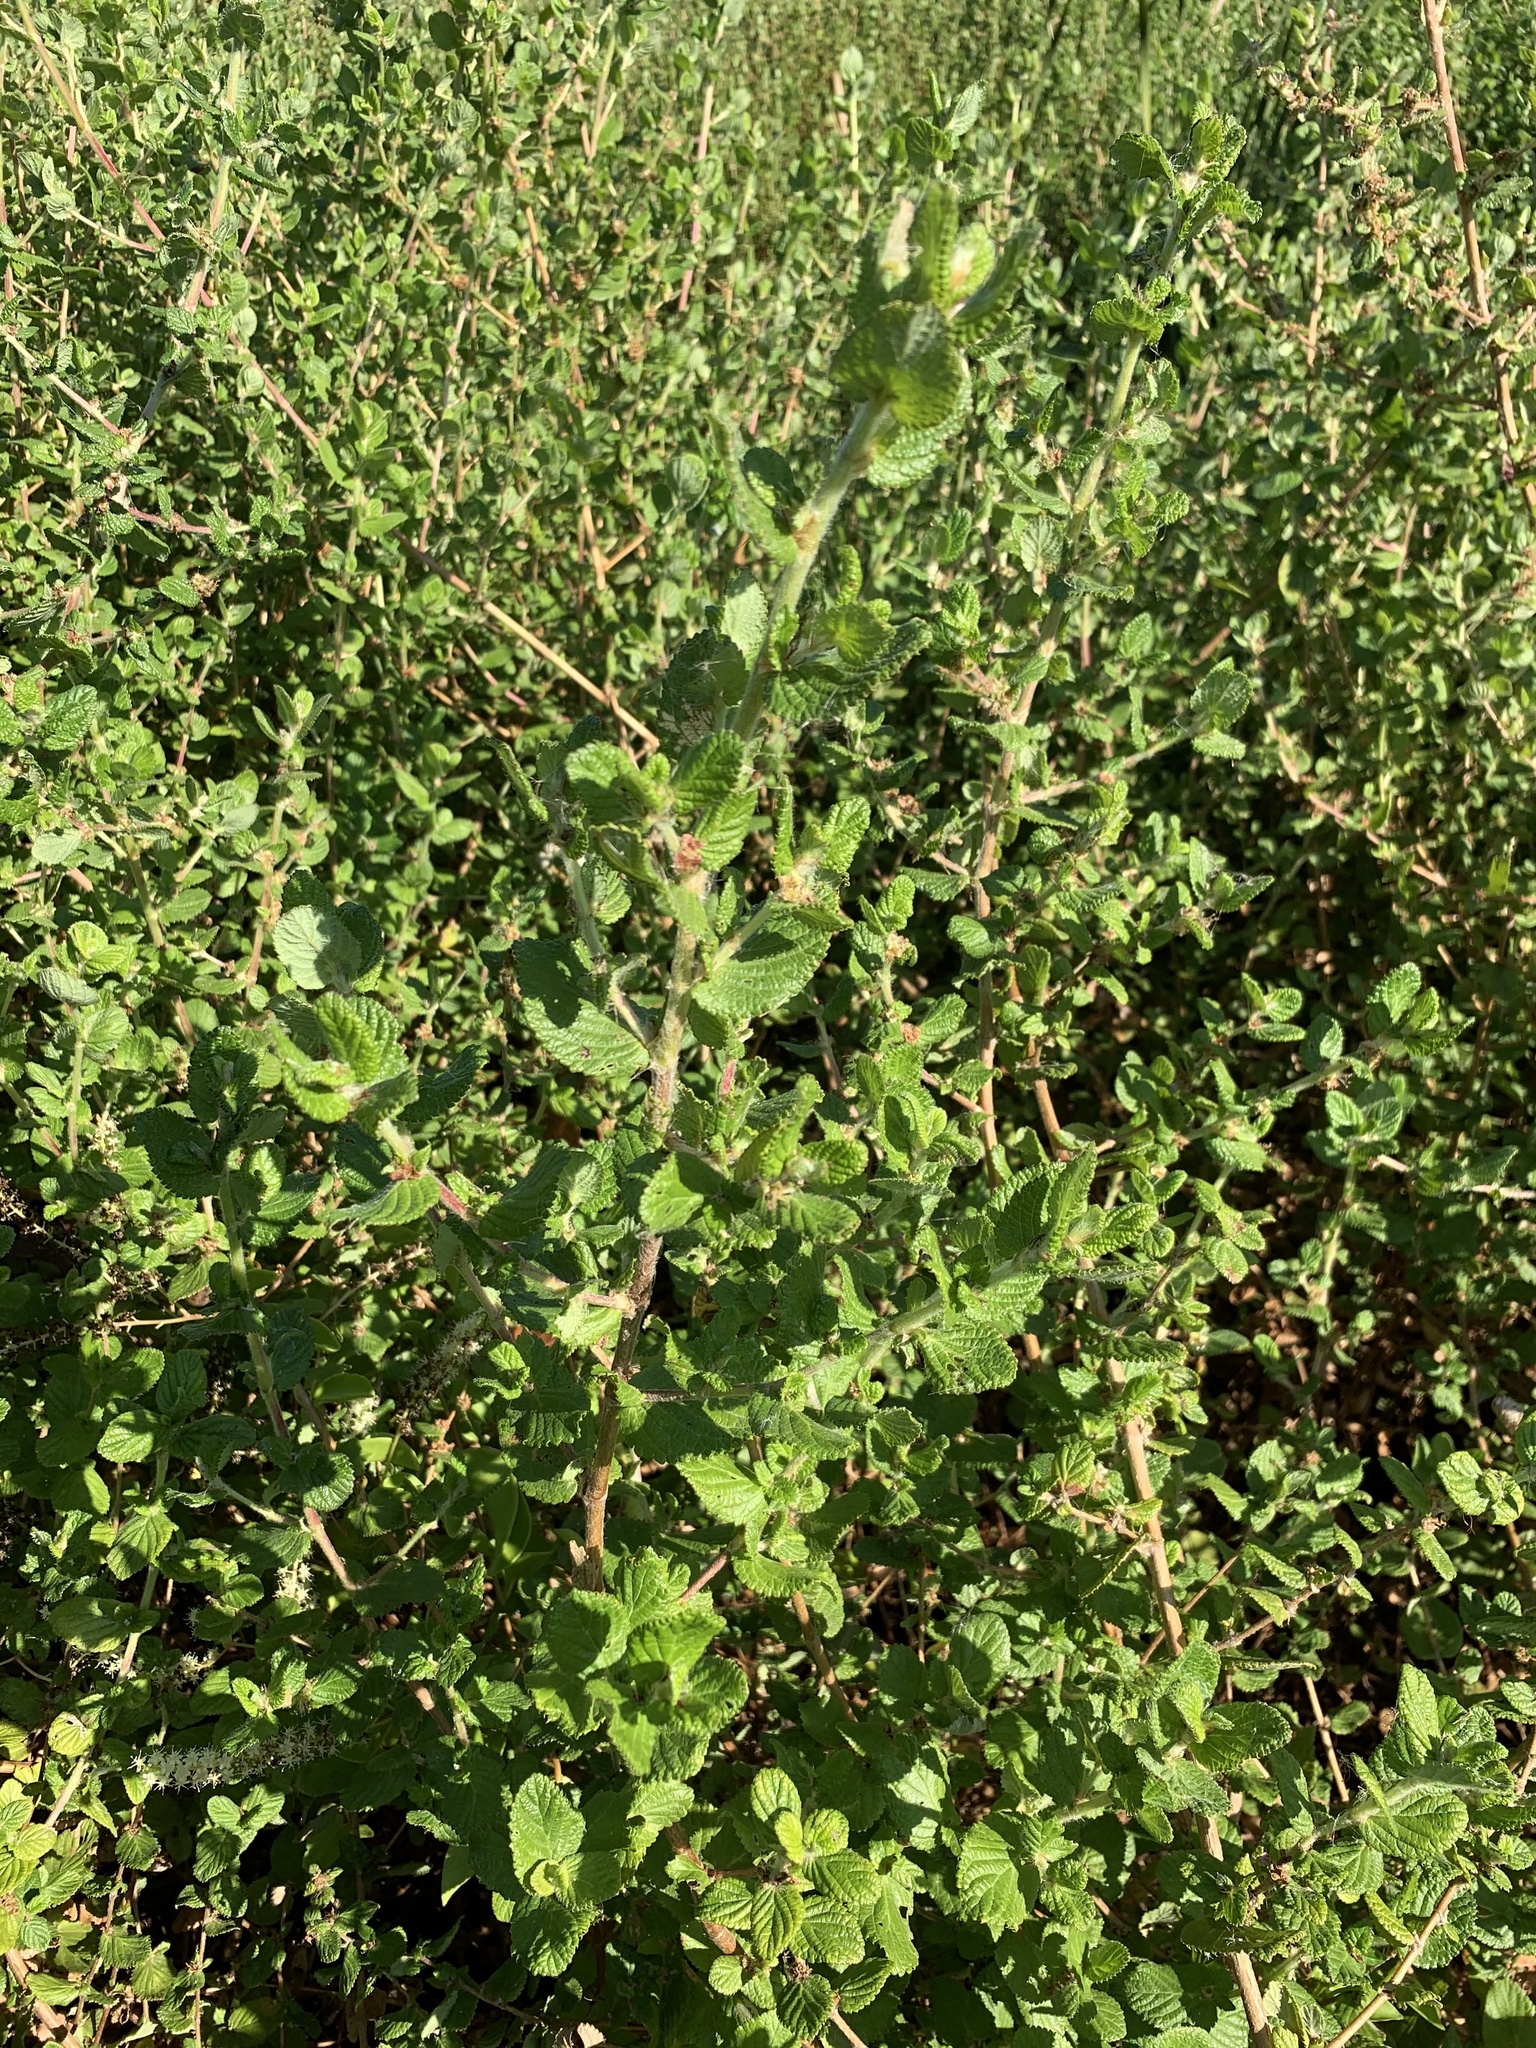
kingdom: Plantae
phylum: Tracheophyta
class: Magnoliopsida
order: Rosales
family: Rosaceae
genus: Cliffortia
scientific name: Cliffortia odorata
